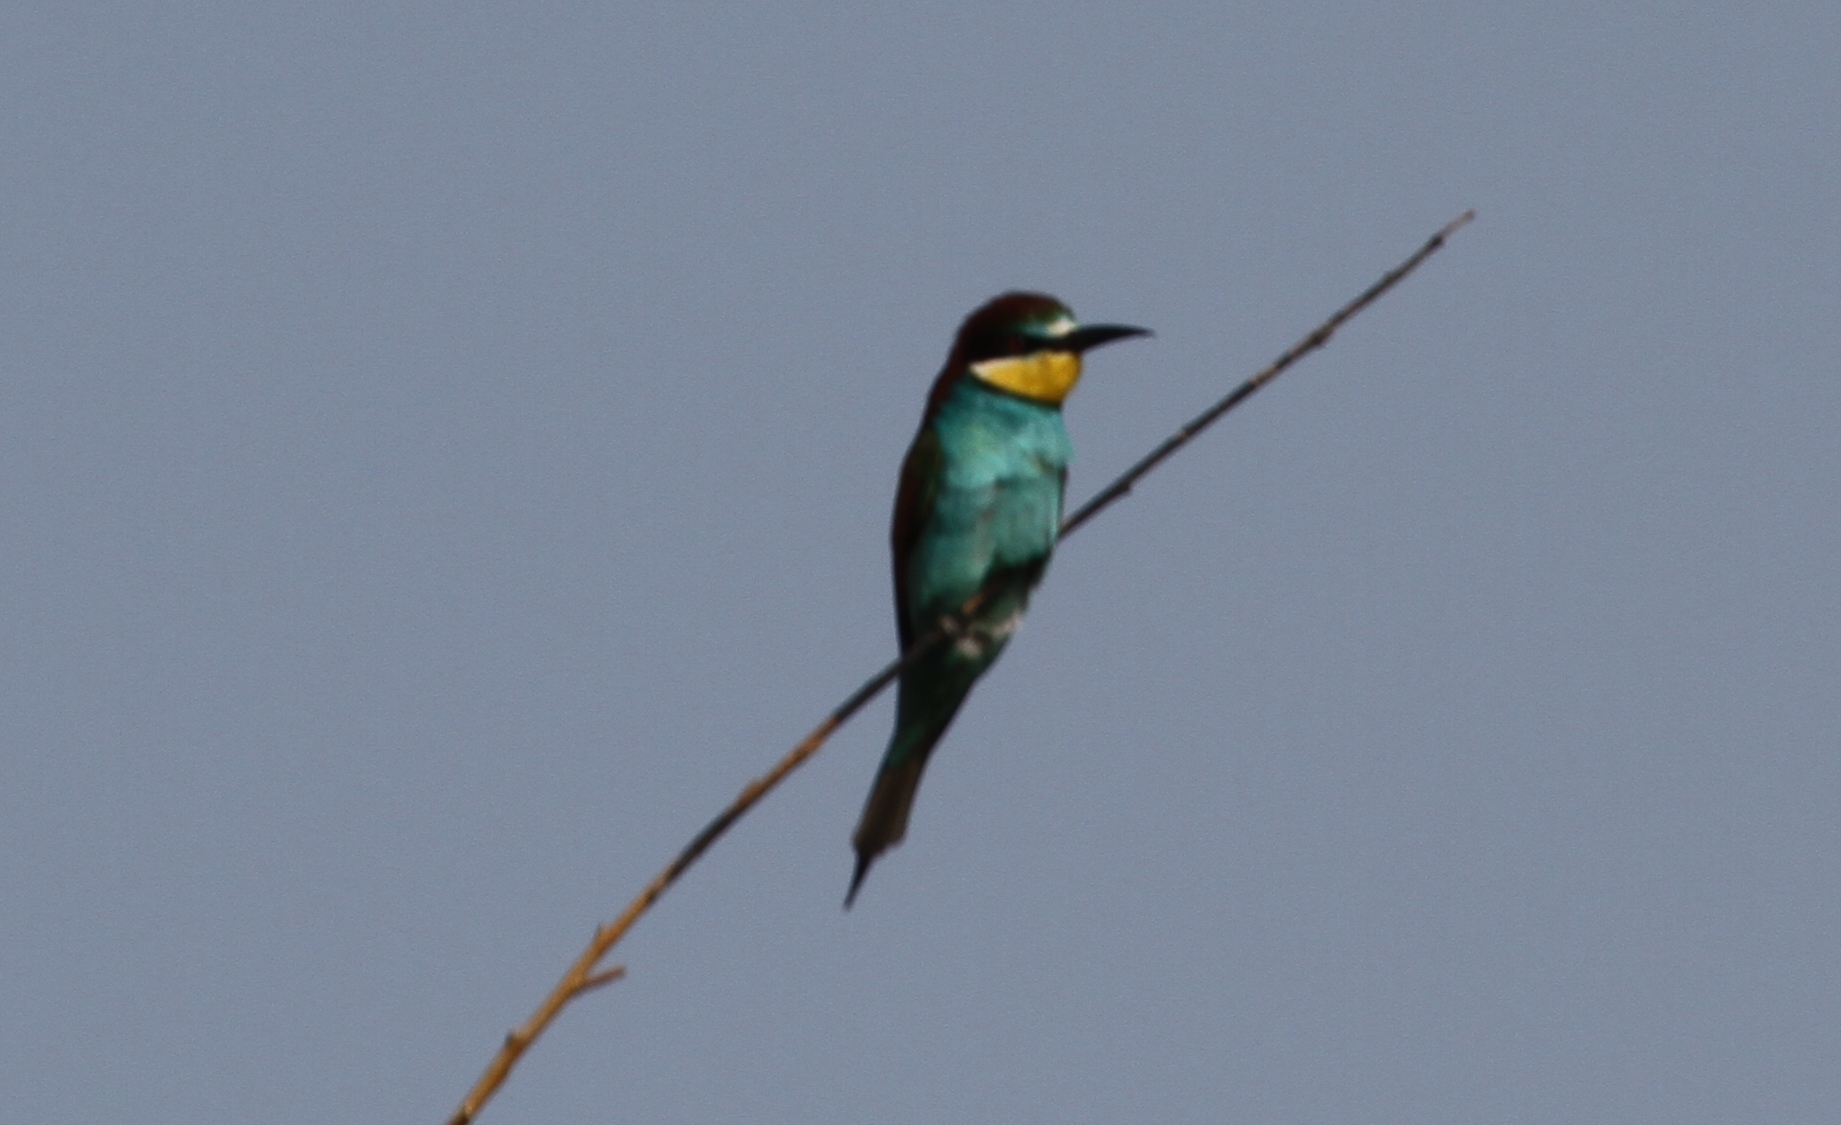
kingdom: Animalia
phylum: Chordata
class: Aves
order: Coraciiformes
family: Meropidae
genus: Merops
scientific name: Merops apiaster
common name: European bee-eater
